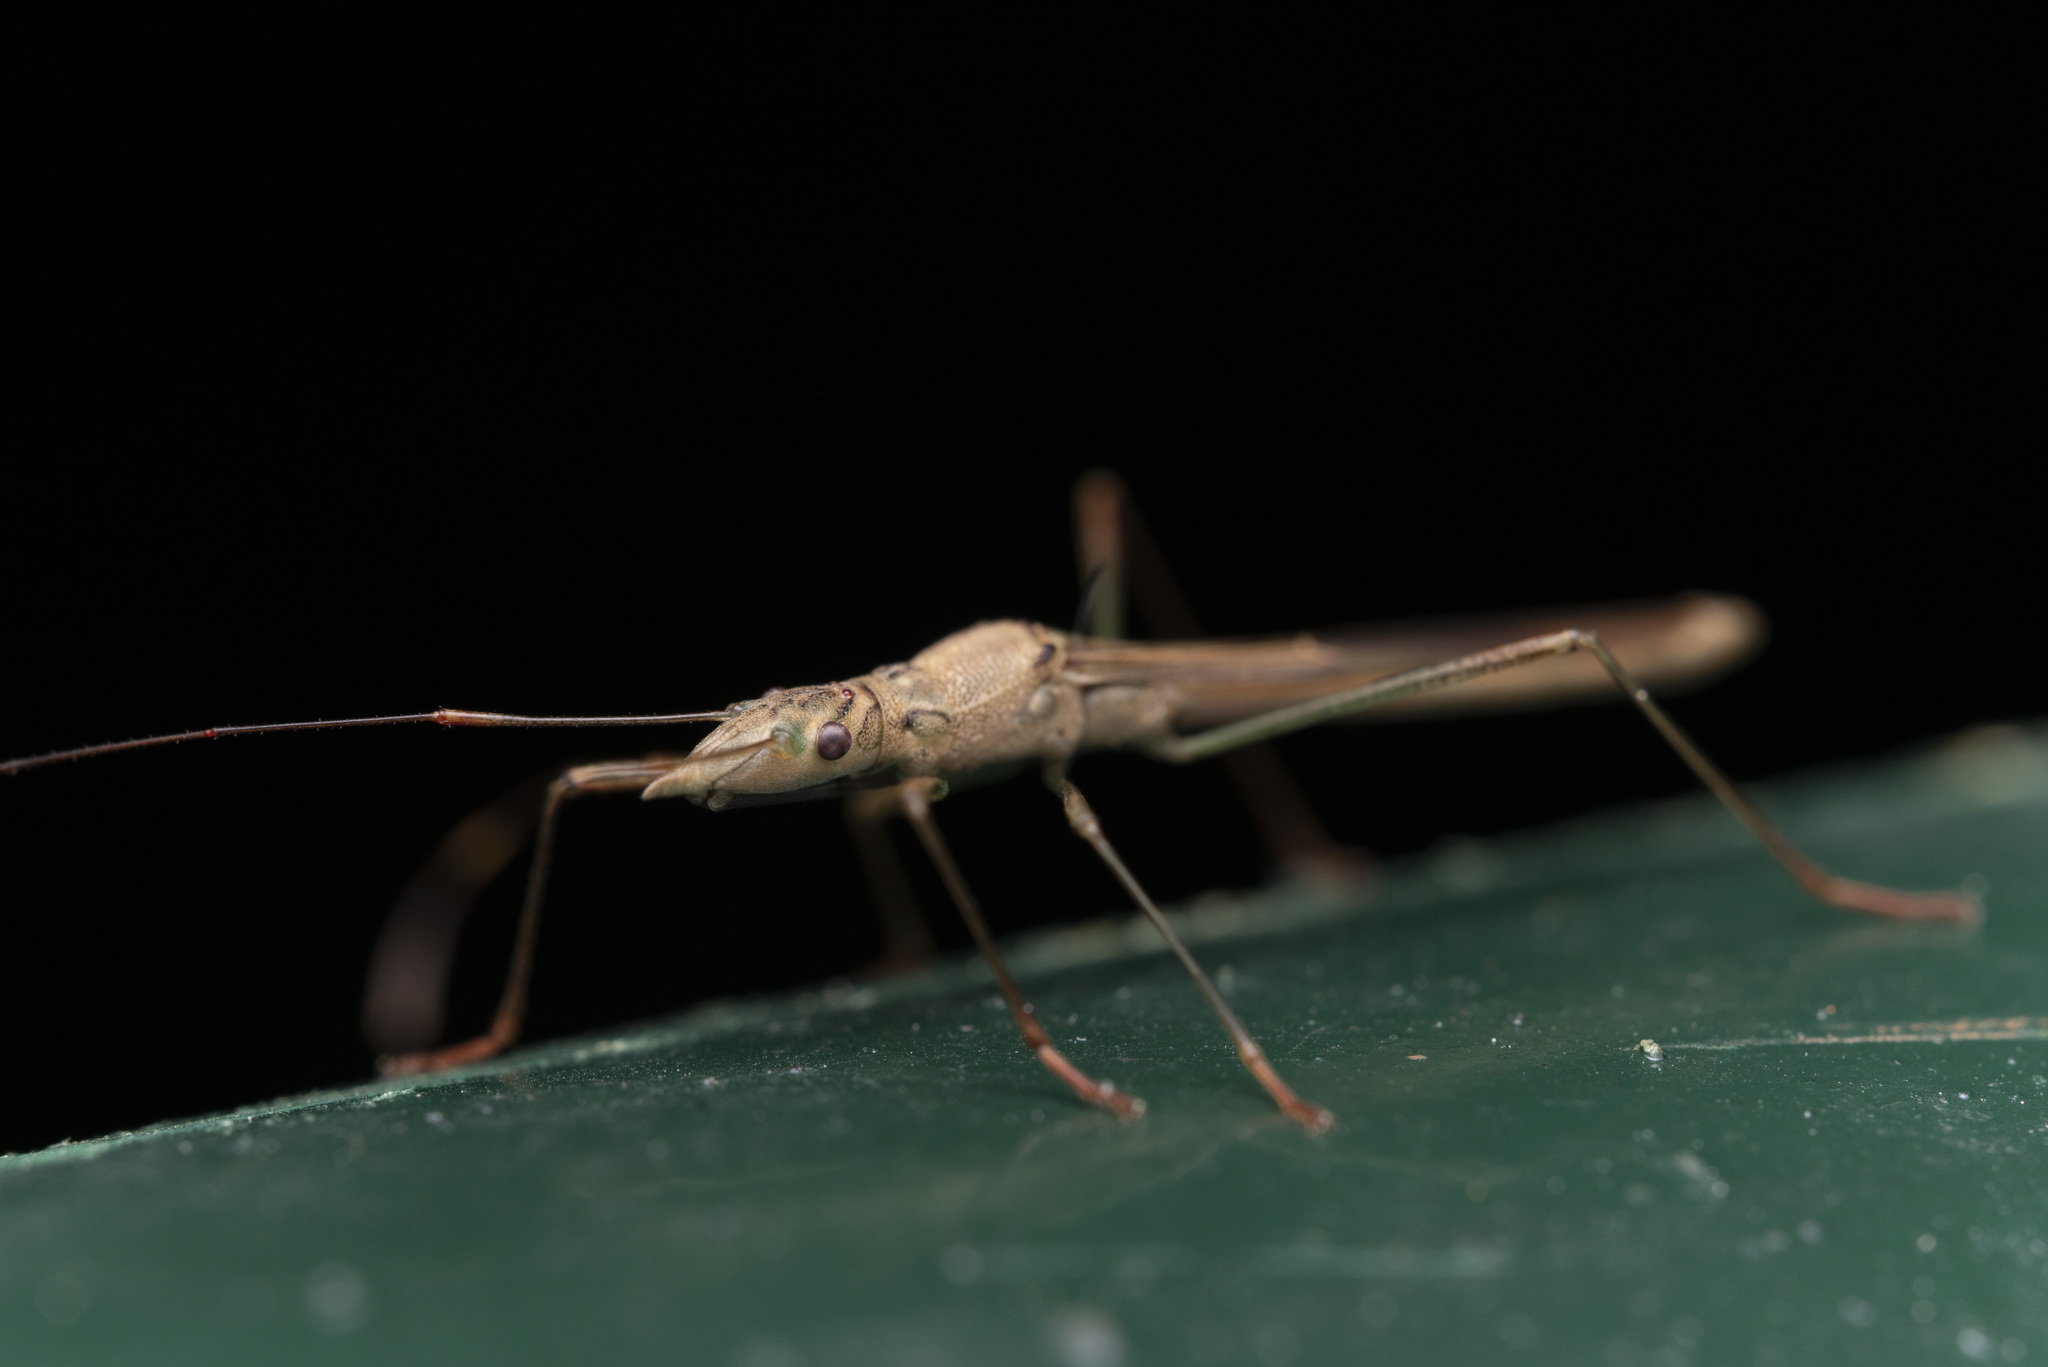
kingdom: Animalia
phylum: Arthropoda
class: Insecta
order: Hemiptera
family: Alydidae
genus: Acestra
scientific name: Acestra yunnana
